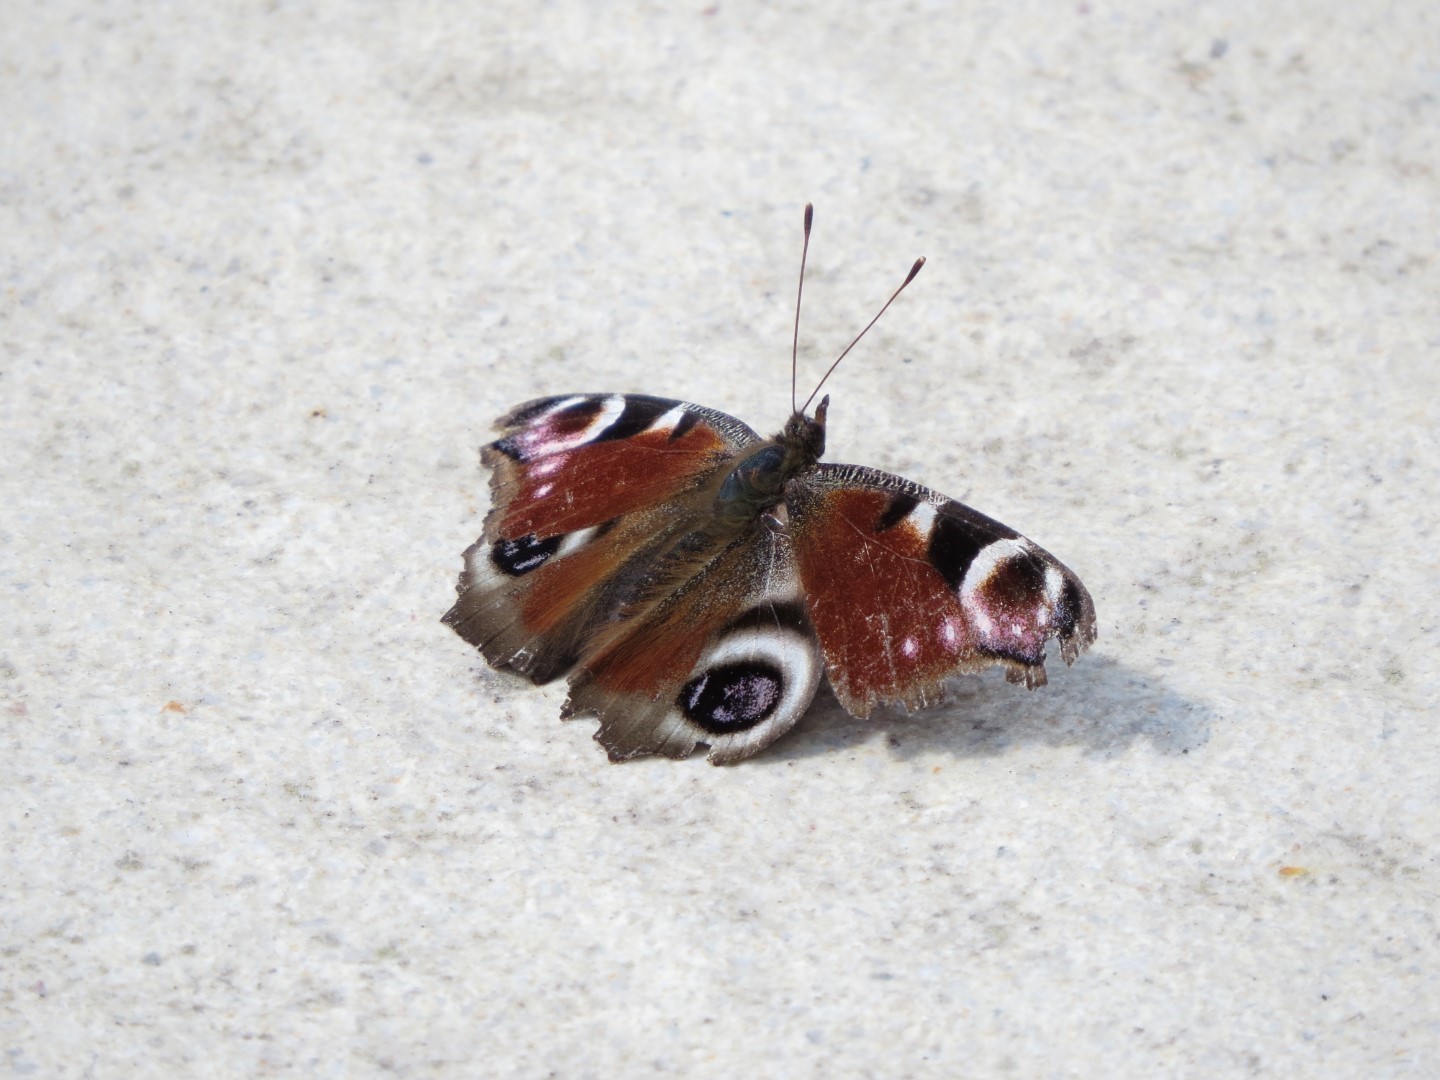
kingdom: Animalia
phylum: Arthropoda
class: Insecta
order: Lepidoptera
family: Nymphalidae
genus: Aglais
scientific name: Aglais io
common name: Peacock
